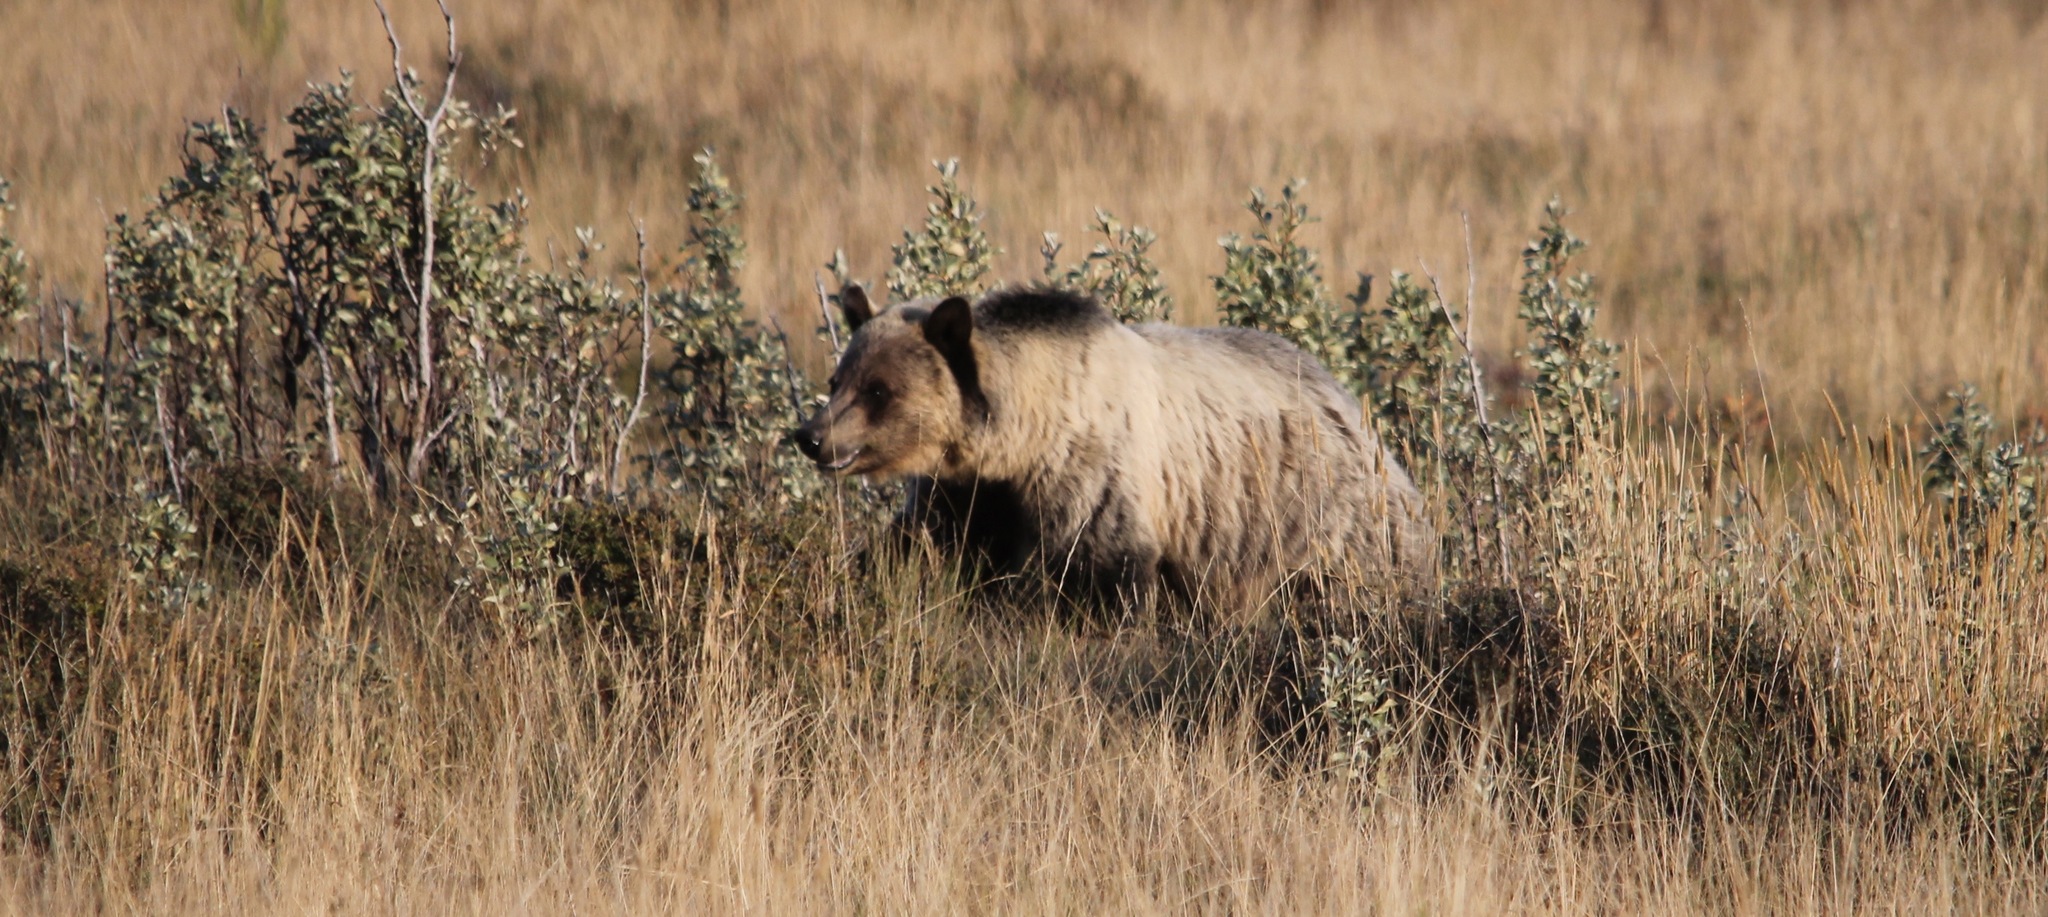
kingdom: Animalia
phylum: Chordata
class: Mammalia
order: Carnivora
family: Ursidae
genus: Ursus
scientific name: Ursus arctos
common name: Brown bear
